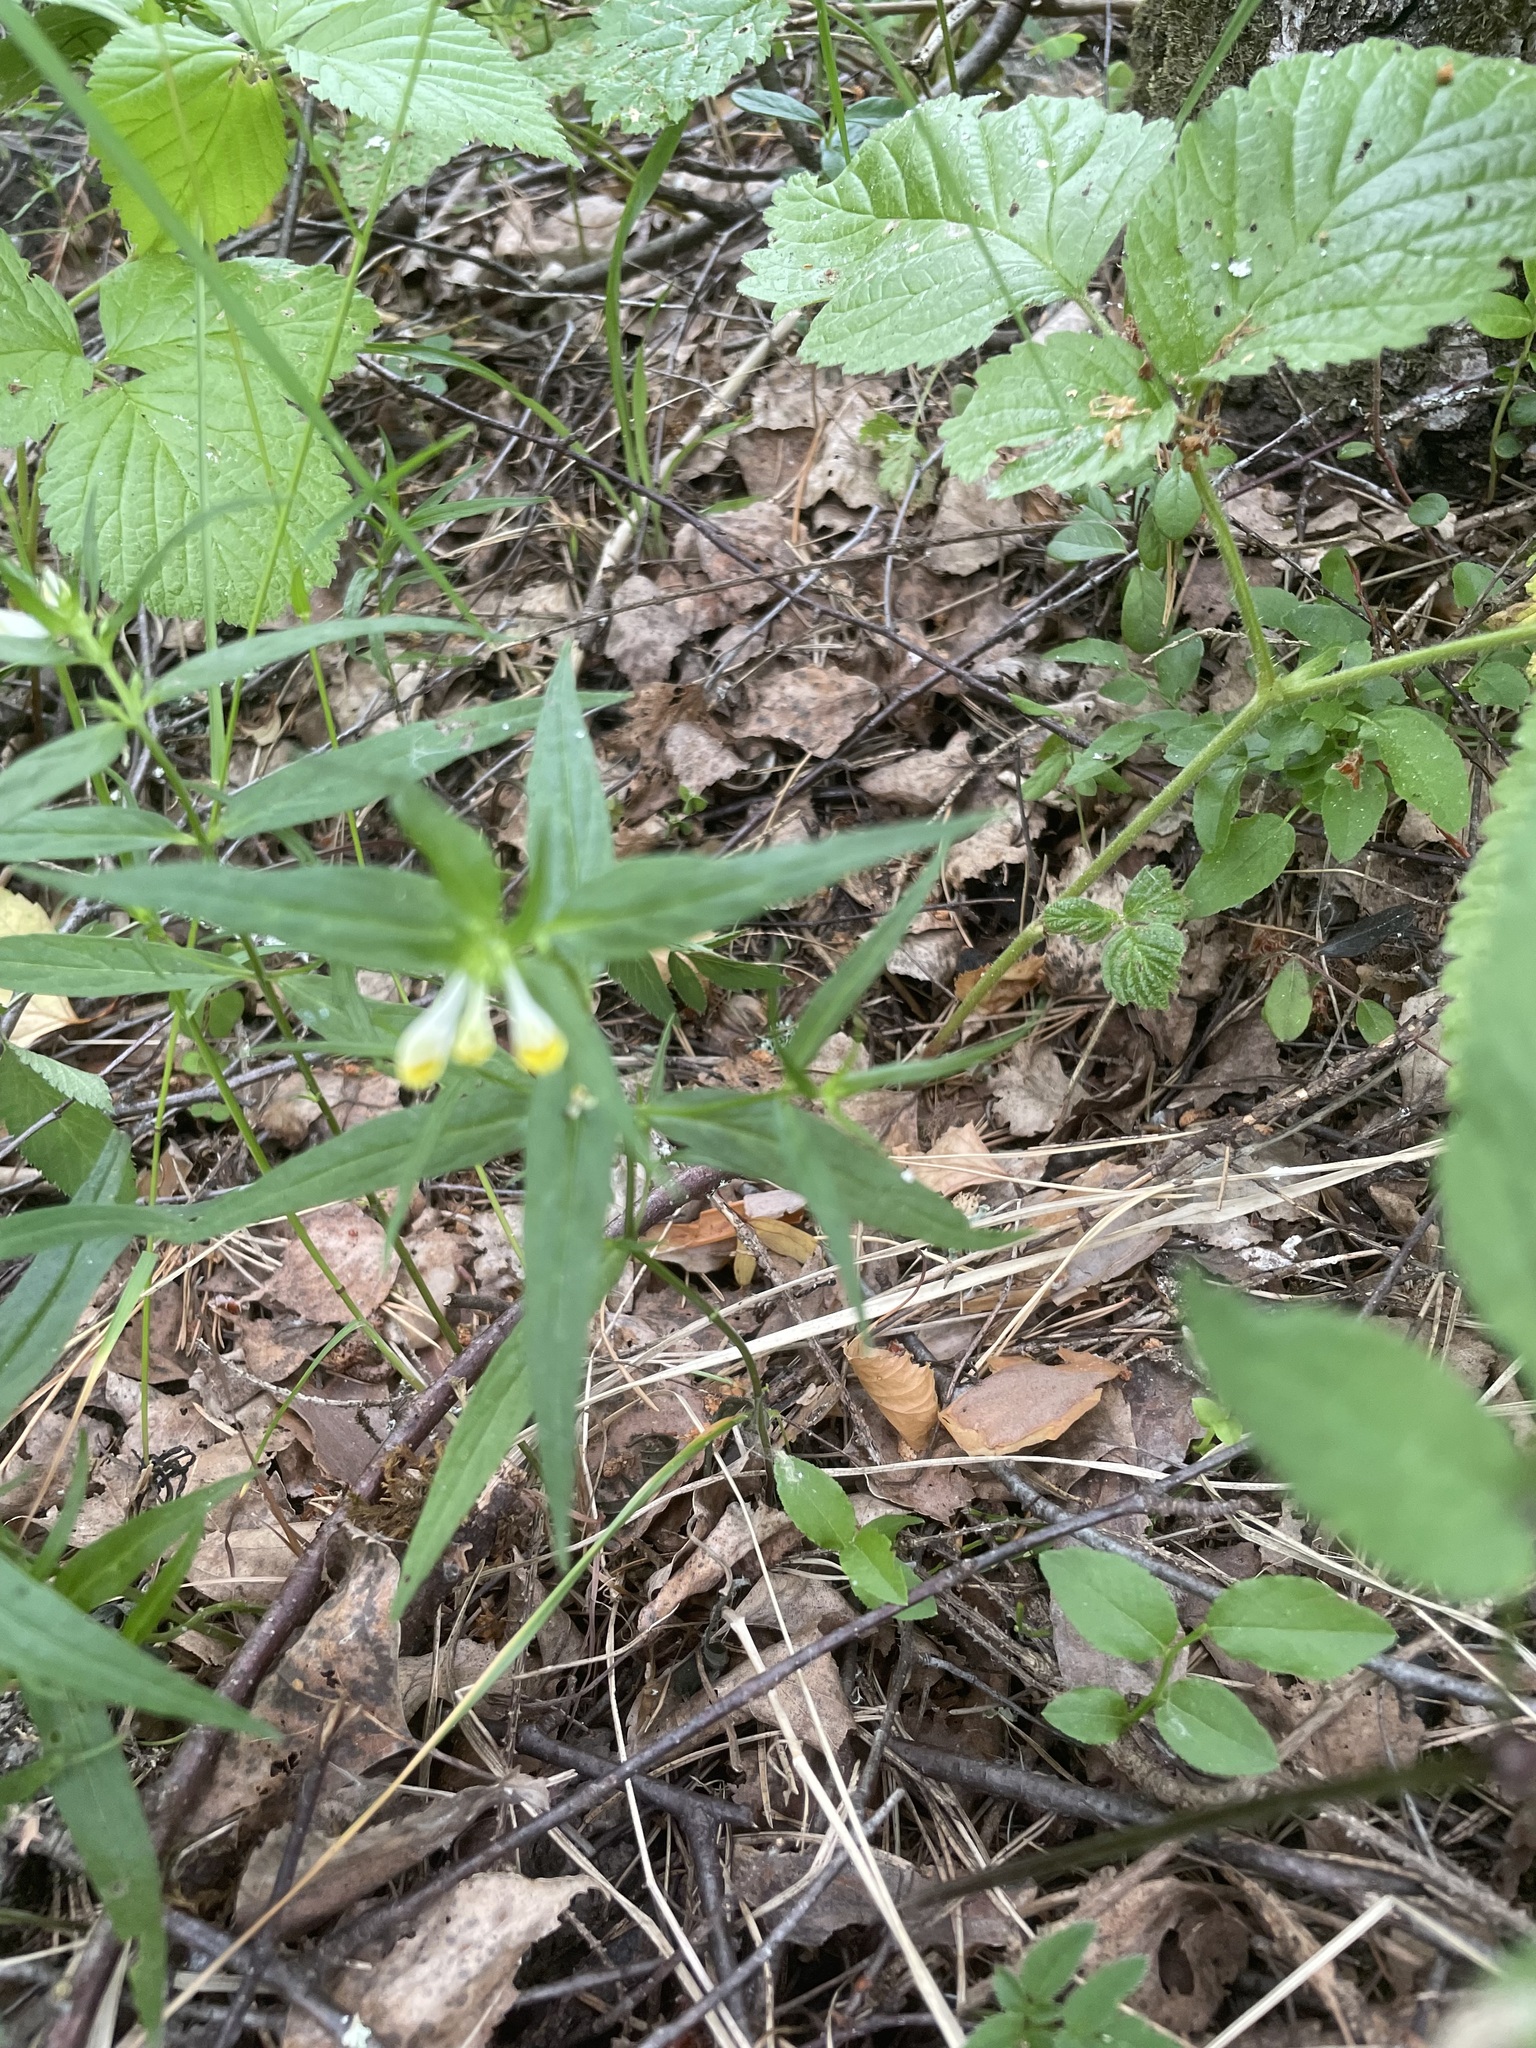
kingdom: Plantae
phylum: Tracheophyta
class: Magnoliopsida
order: Lamiales
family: Orobanchaceae
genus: Melampyrum
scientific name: Melampyrum pratense
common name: Common cow-wheat
